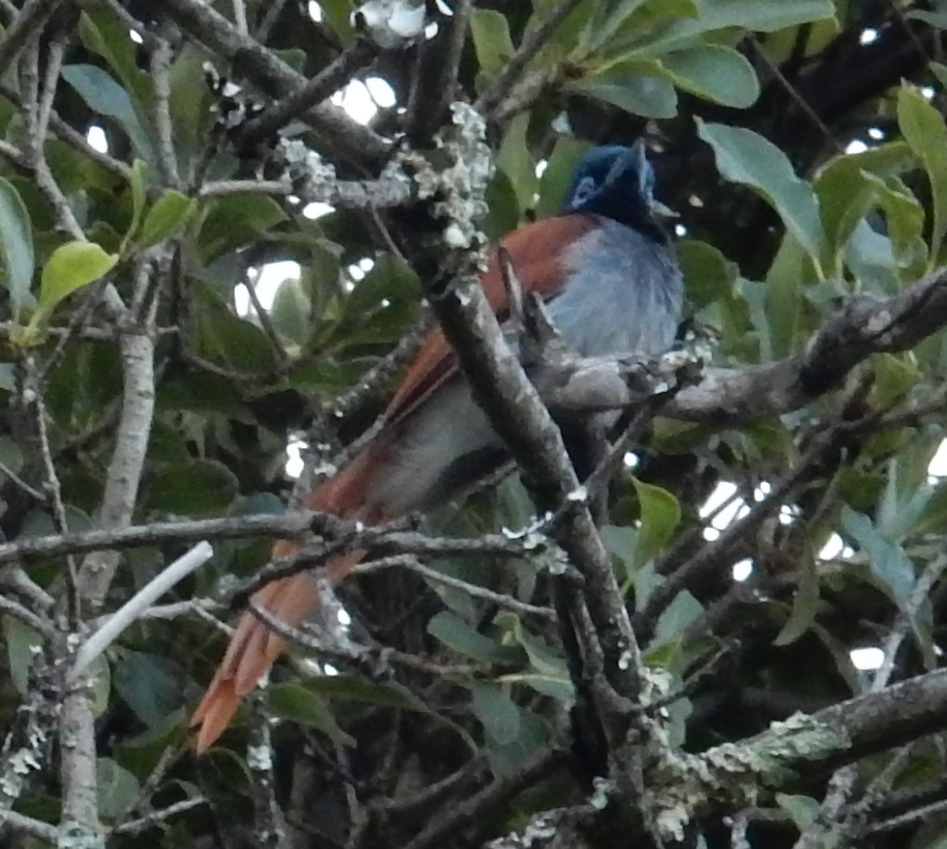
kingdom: Animalia
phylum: Chordata
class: Aves
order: Passeriformes
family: Monarchidae
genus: Terpsiphone
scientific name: Terpsiphone viridis
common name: African paradise flycatcher
